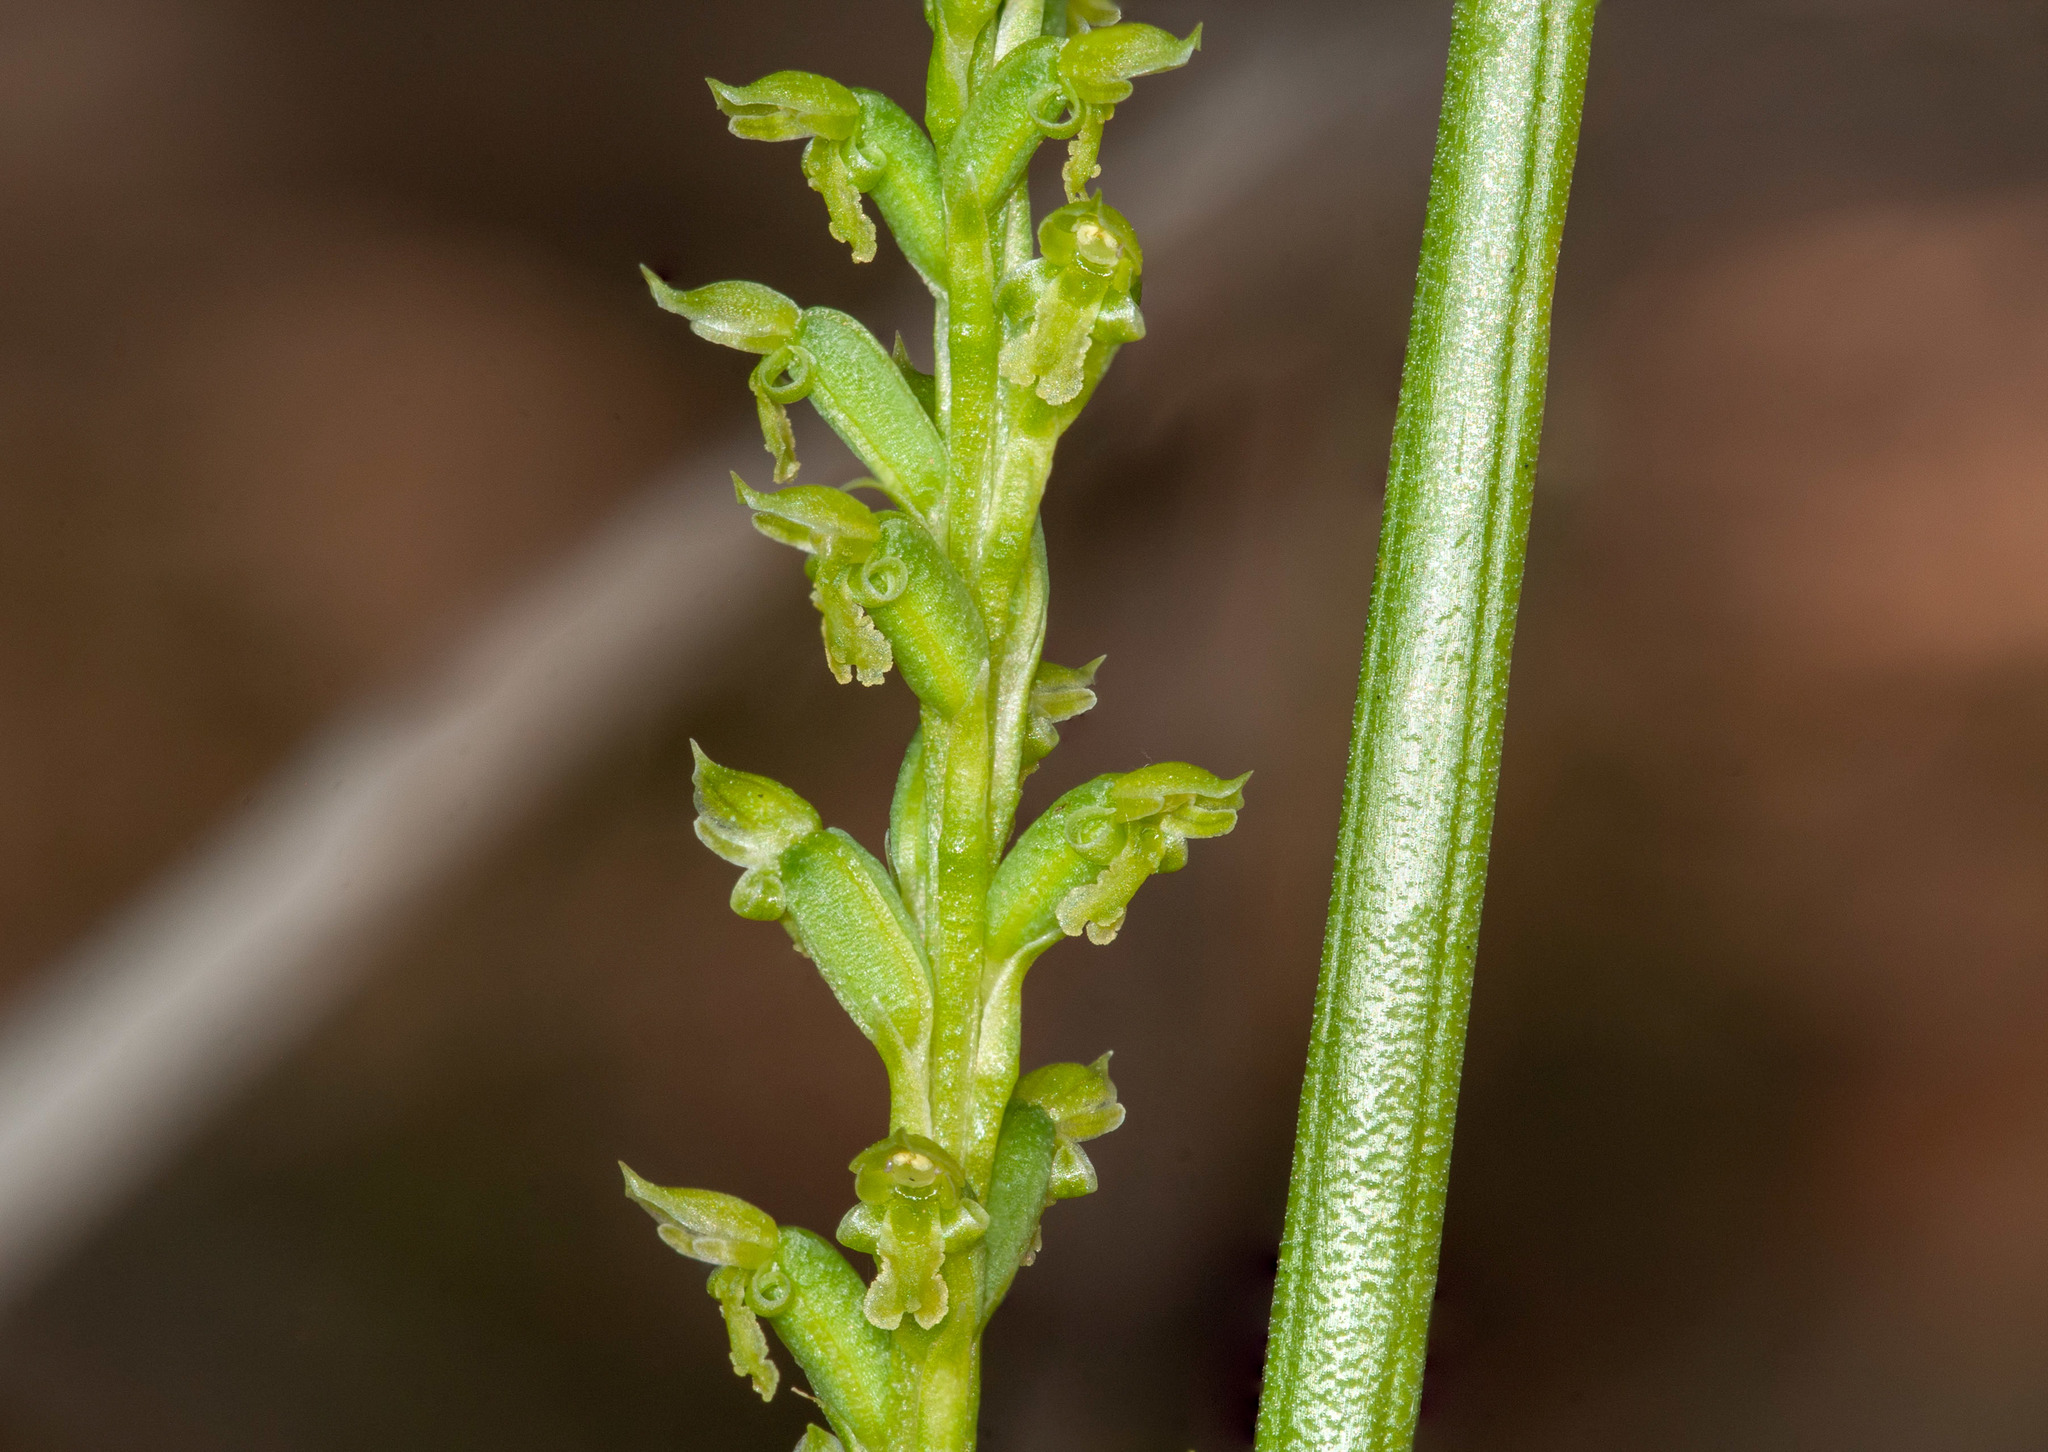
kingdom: Plantae
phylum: Tracheophyta
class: Liliopsida
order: Asparagales
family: Orchidaceae
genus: Microtis
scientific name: Microtis arenaria
